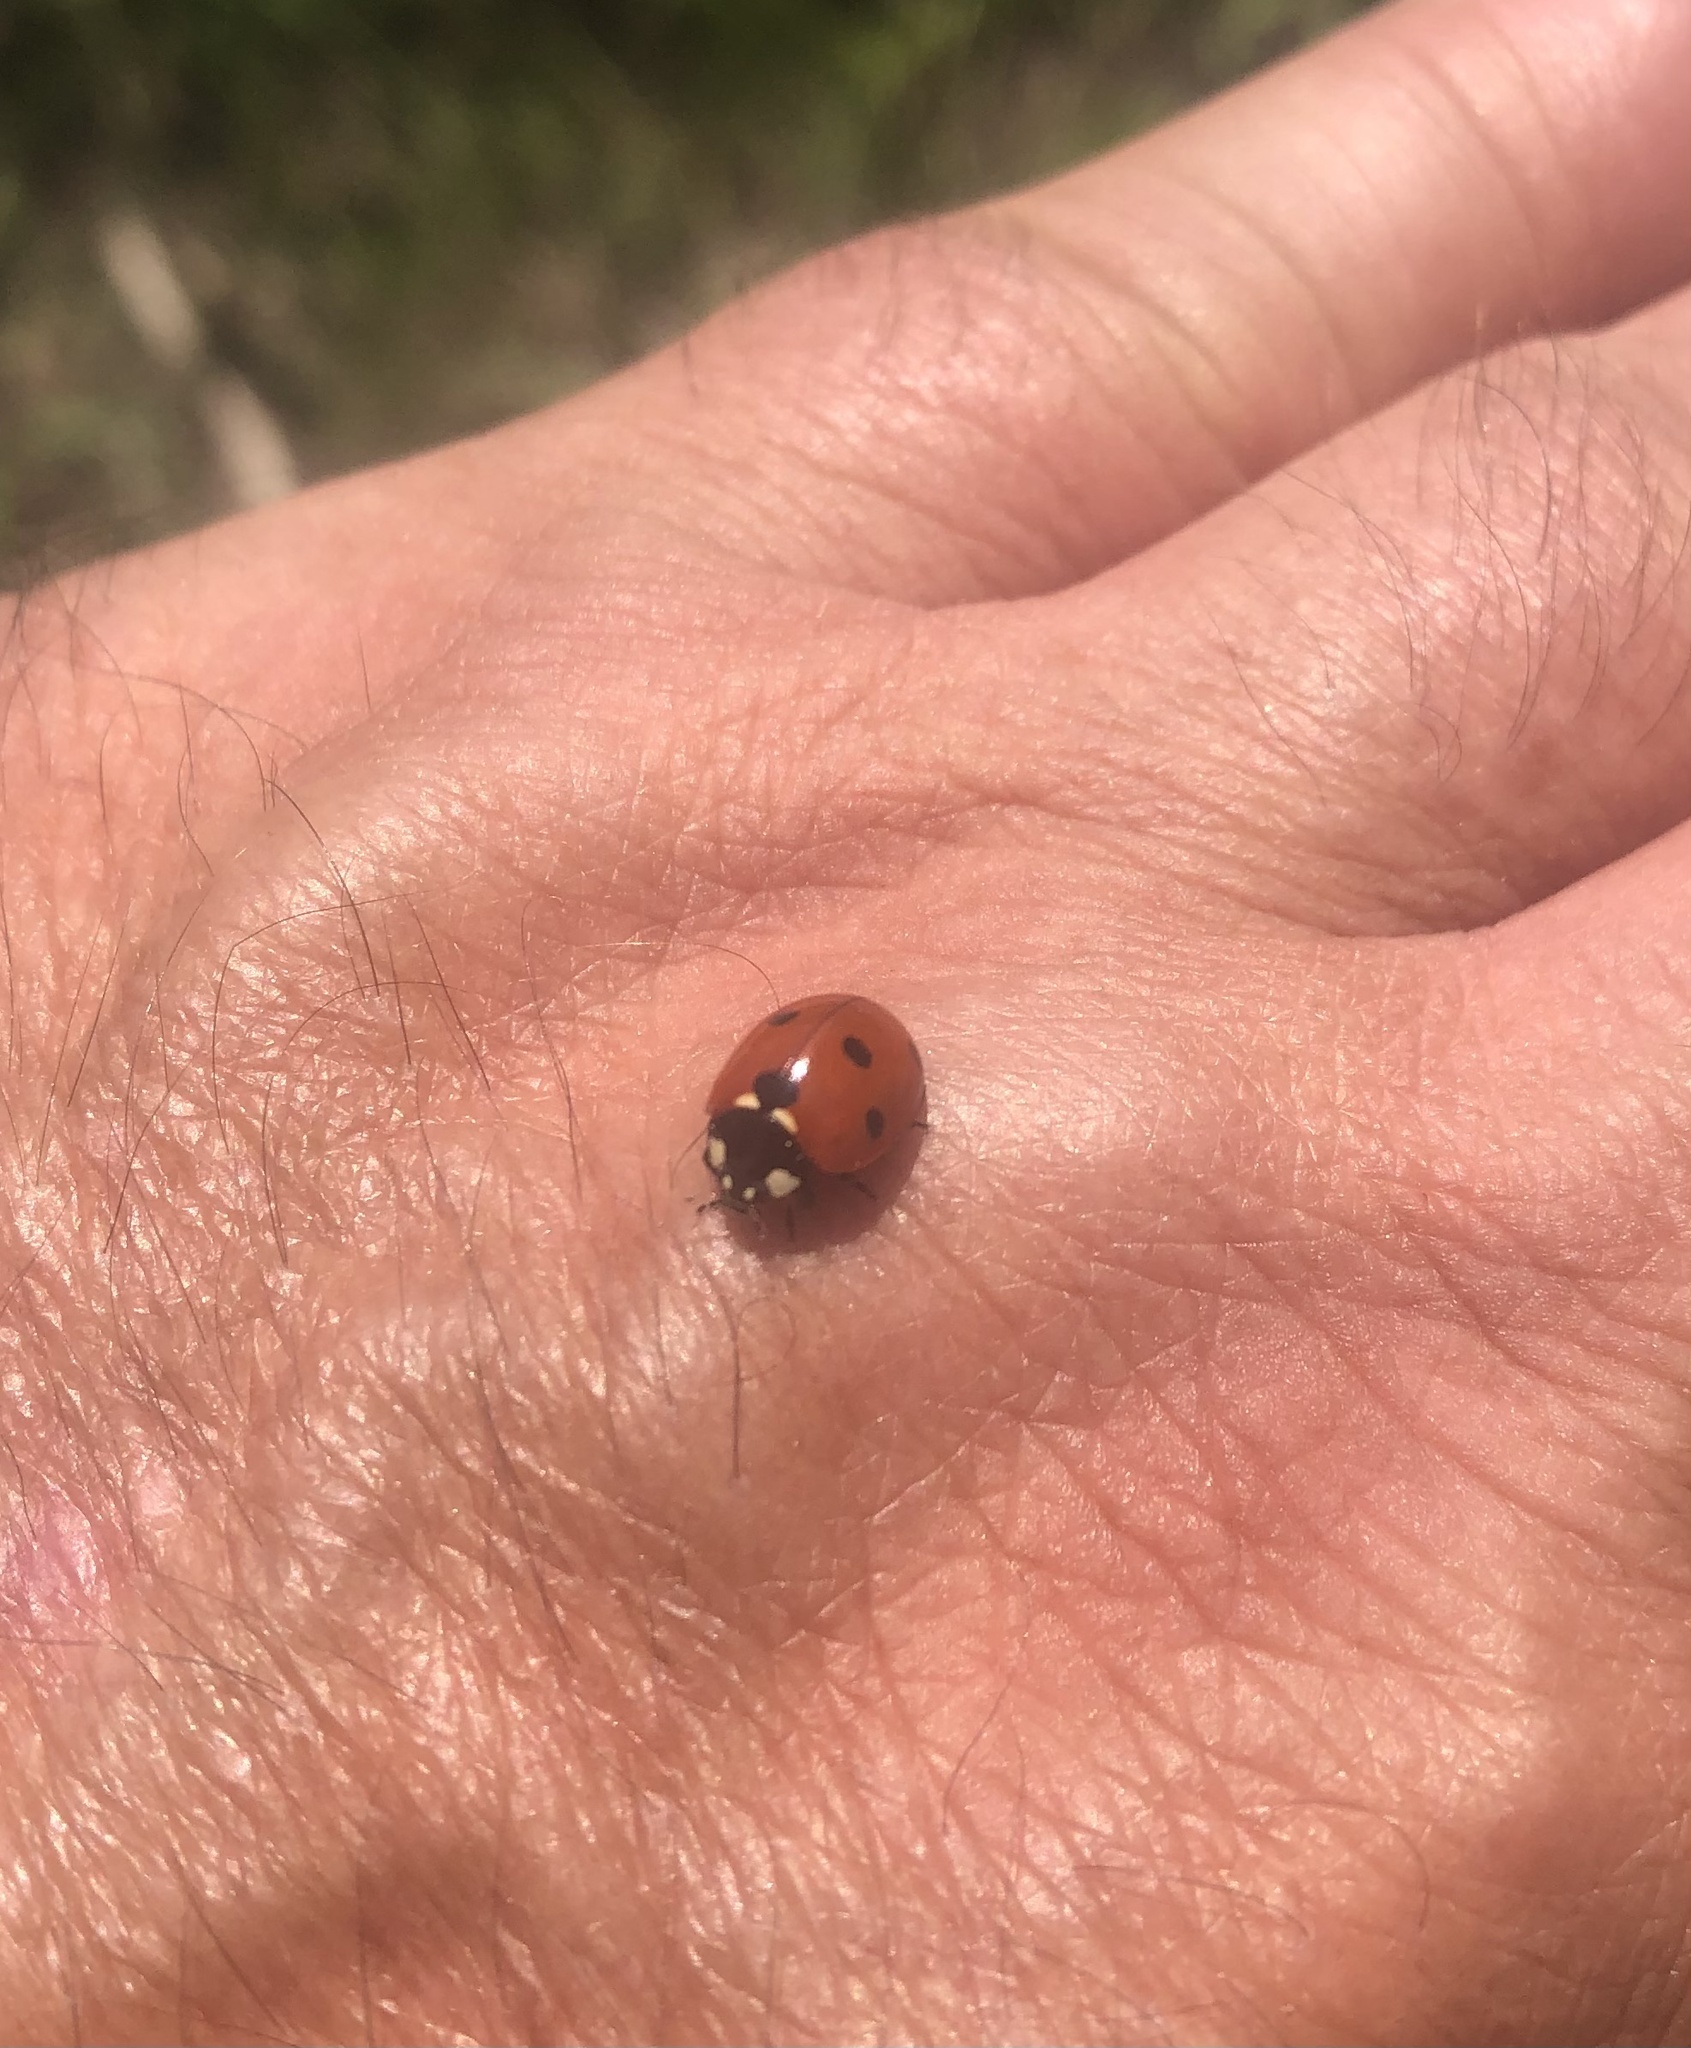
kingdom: Animalia
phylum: Arthropoda
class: Insecta
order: Coleoptera
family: Coccinellidae
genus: Coccinella
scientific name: Coccinella septempunctata
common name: Sevenspotted lady beetle
